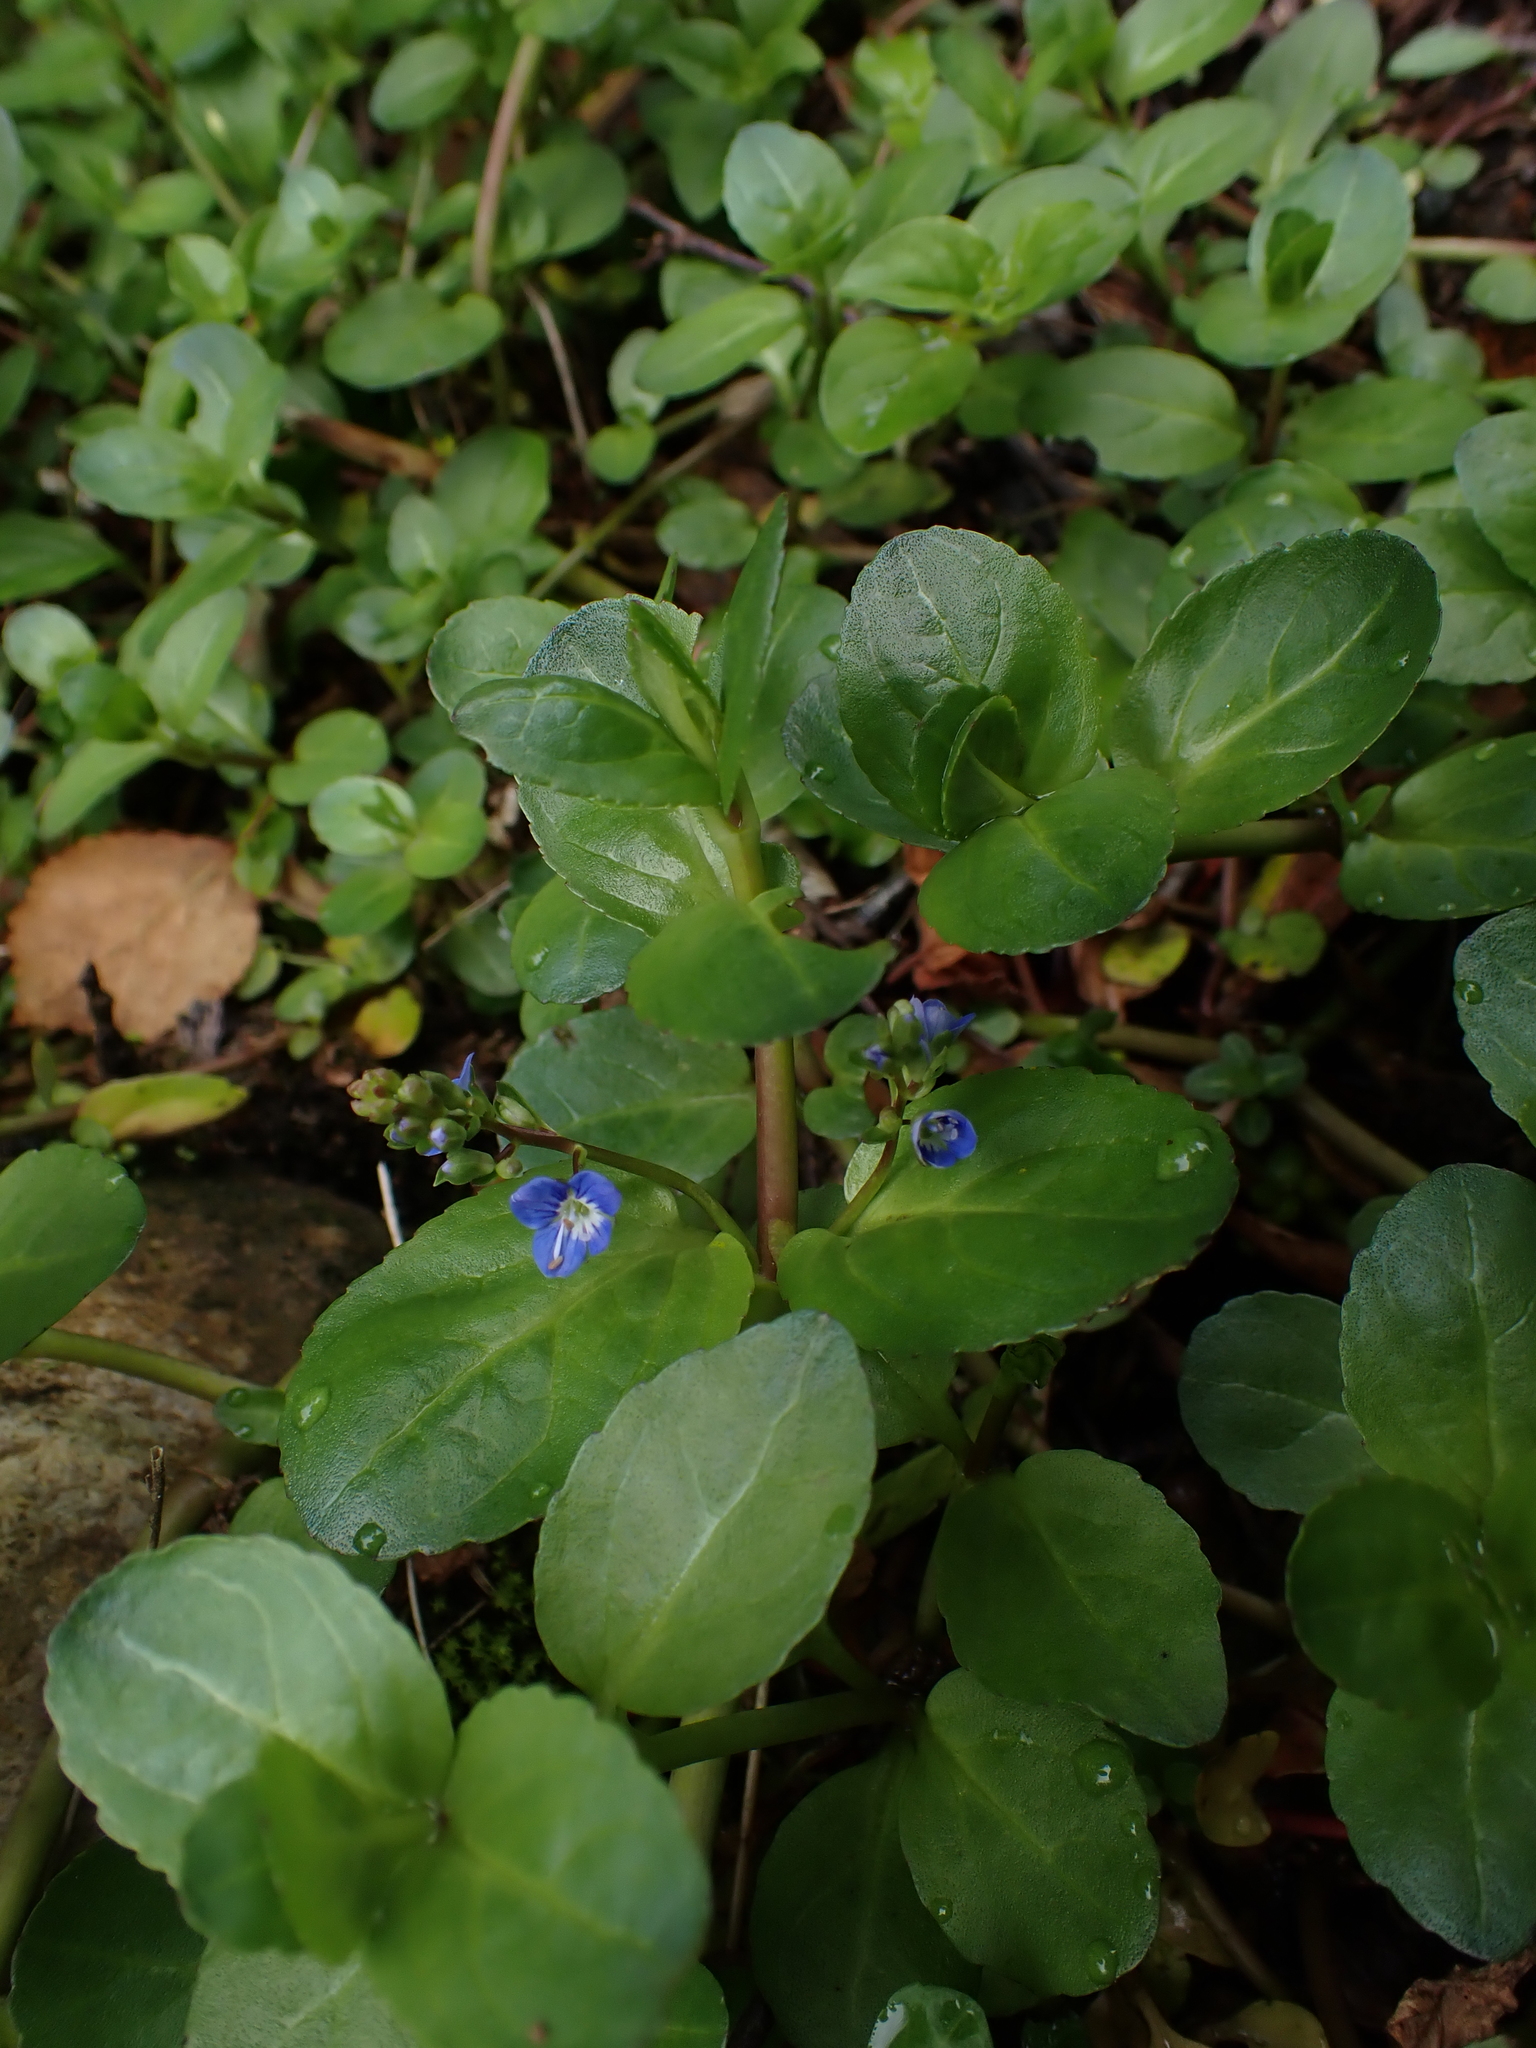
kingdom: Plantae
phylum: Tracheophyta
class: Magnoliopsida
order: Lamiales
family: Plantaginaceae
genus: Veronica
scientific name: Veronica beccabunga
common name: Brooklime
